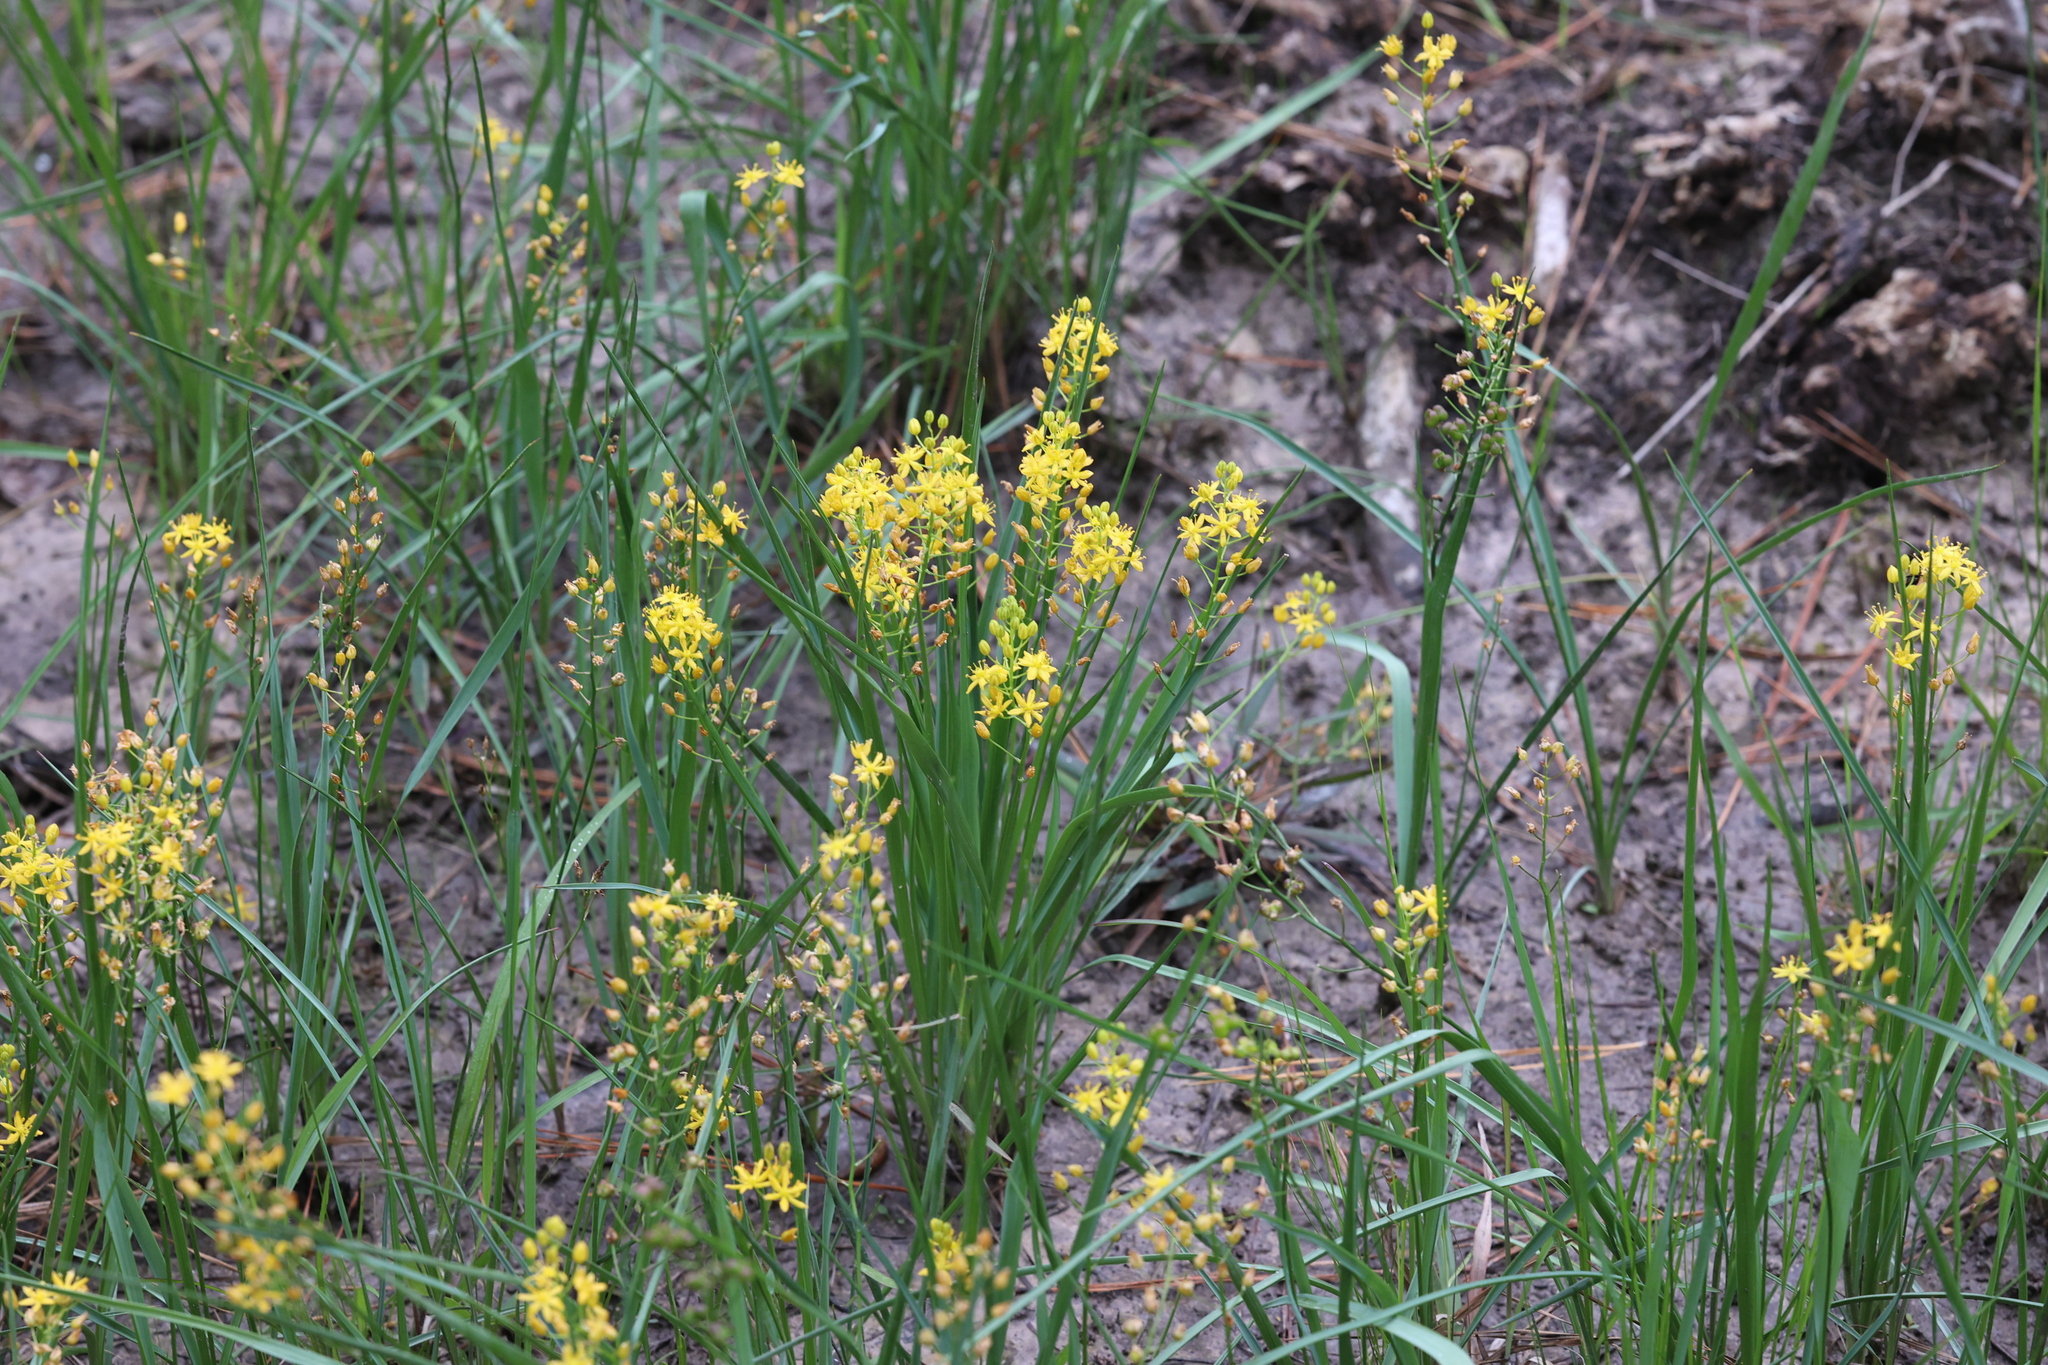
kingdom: Plantae
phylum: Tracheophyta
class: Liliopsida
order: Asparagales
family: Asparagaceae
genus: Schoenolirion
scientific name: Schoenolirion croceum
